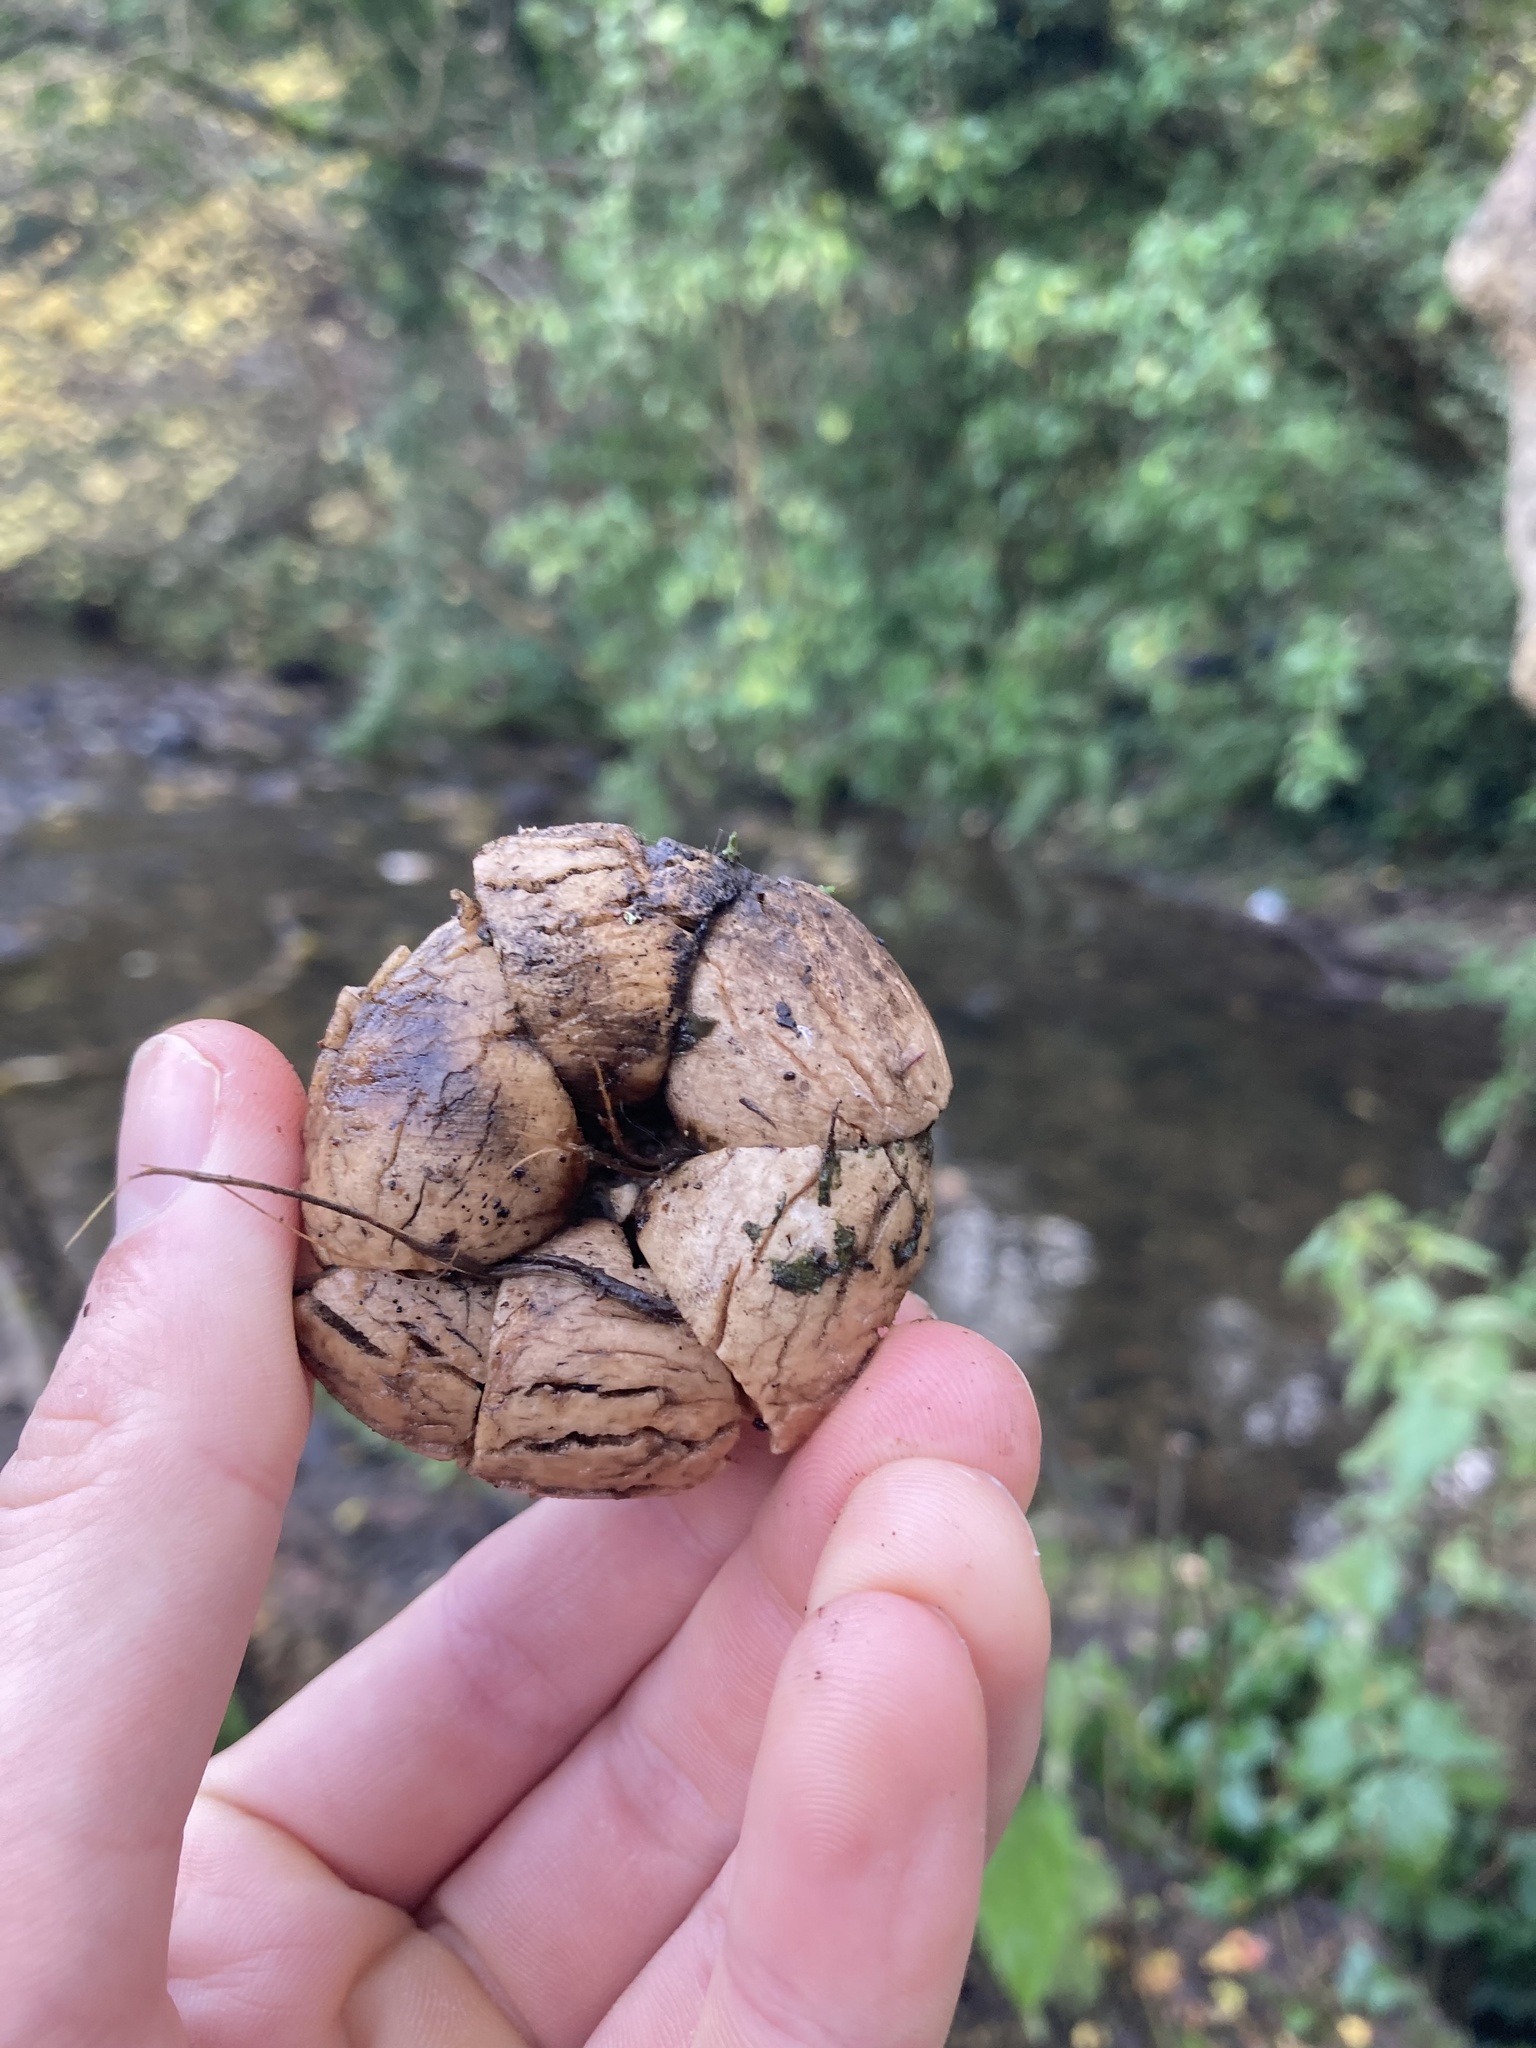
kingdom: Fungi
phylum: Basidiomycota
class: Agaricomycetes
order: Geastrales
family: Geastraceae
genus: Geastrum
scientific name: Geastrum triplex
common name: Collared earthstar
